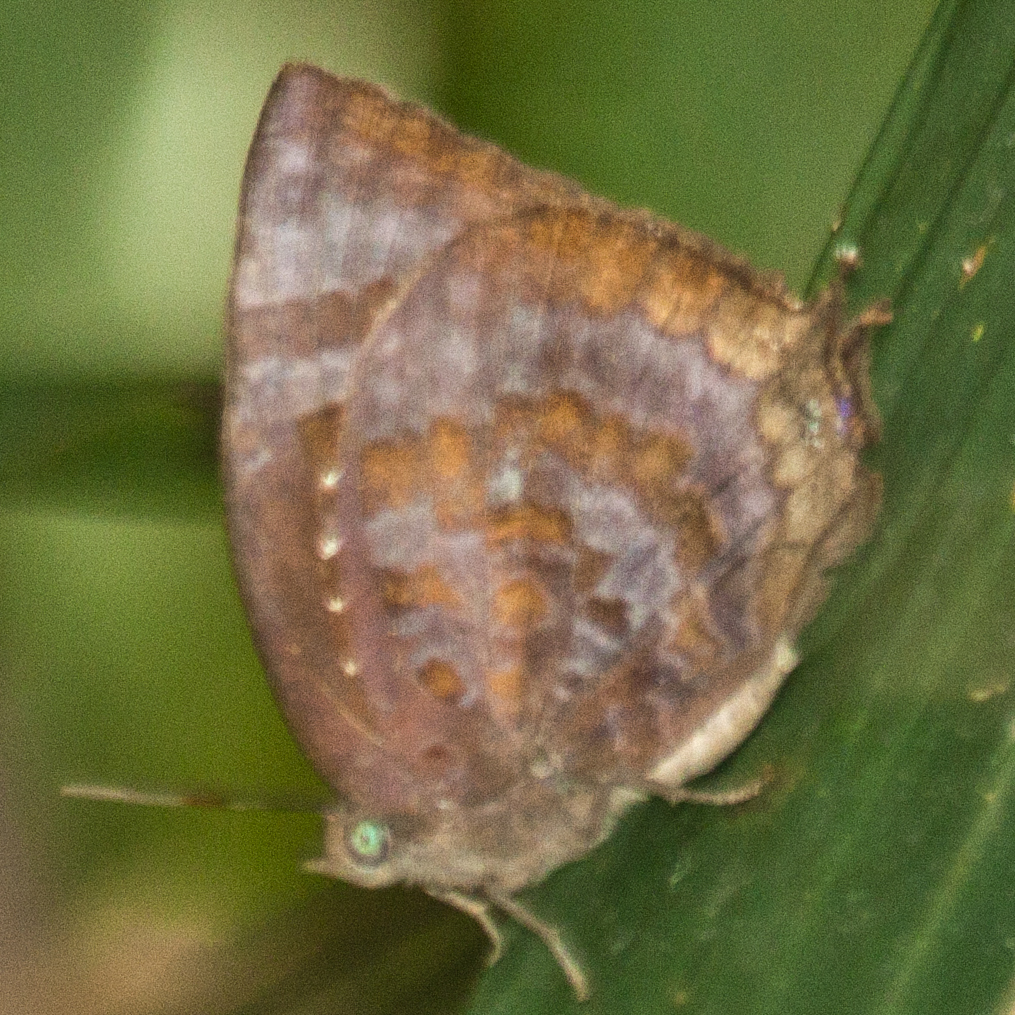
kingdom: Animalia
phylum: Arthropoda
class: Insecta
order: Lepidoptera
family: Lycaenidae
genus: Arhopala
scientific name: Arhopala centaurus
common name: Dull oak-blue
